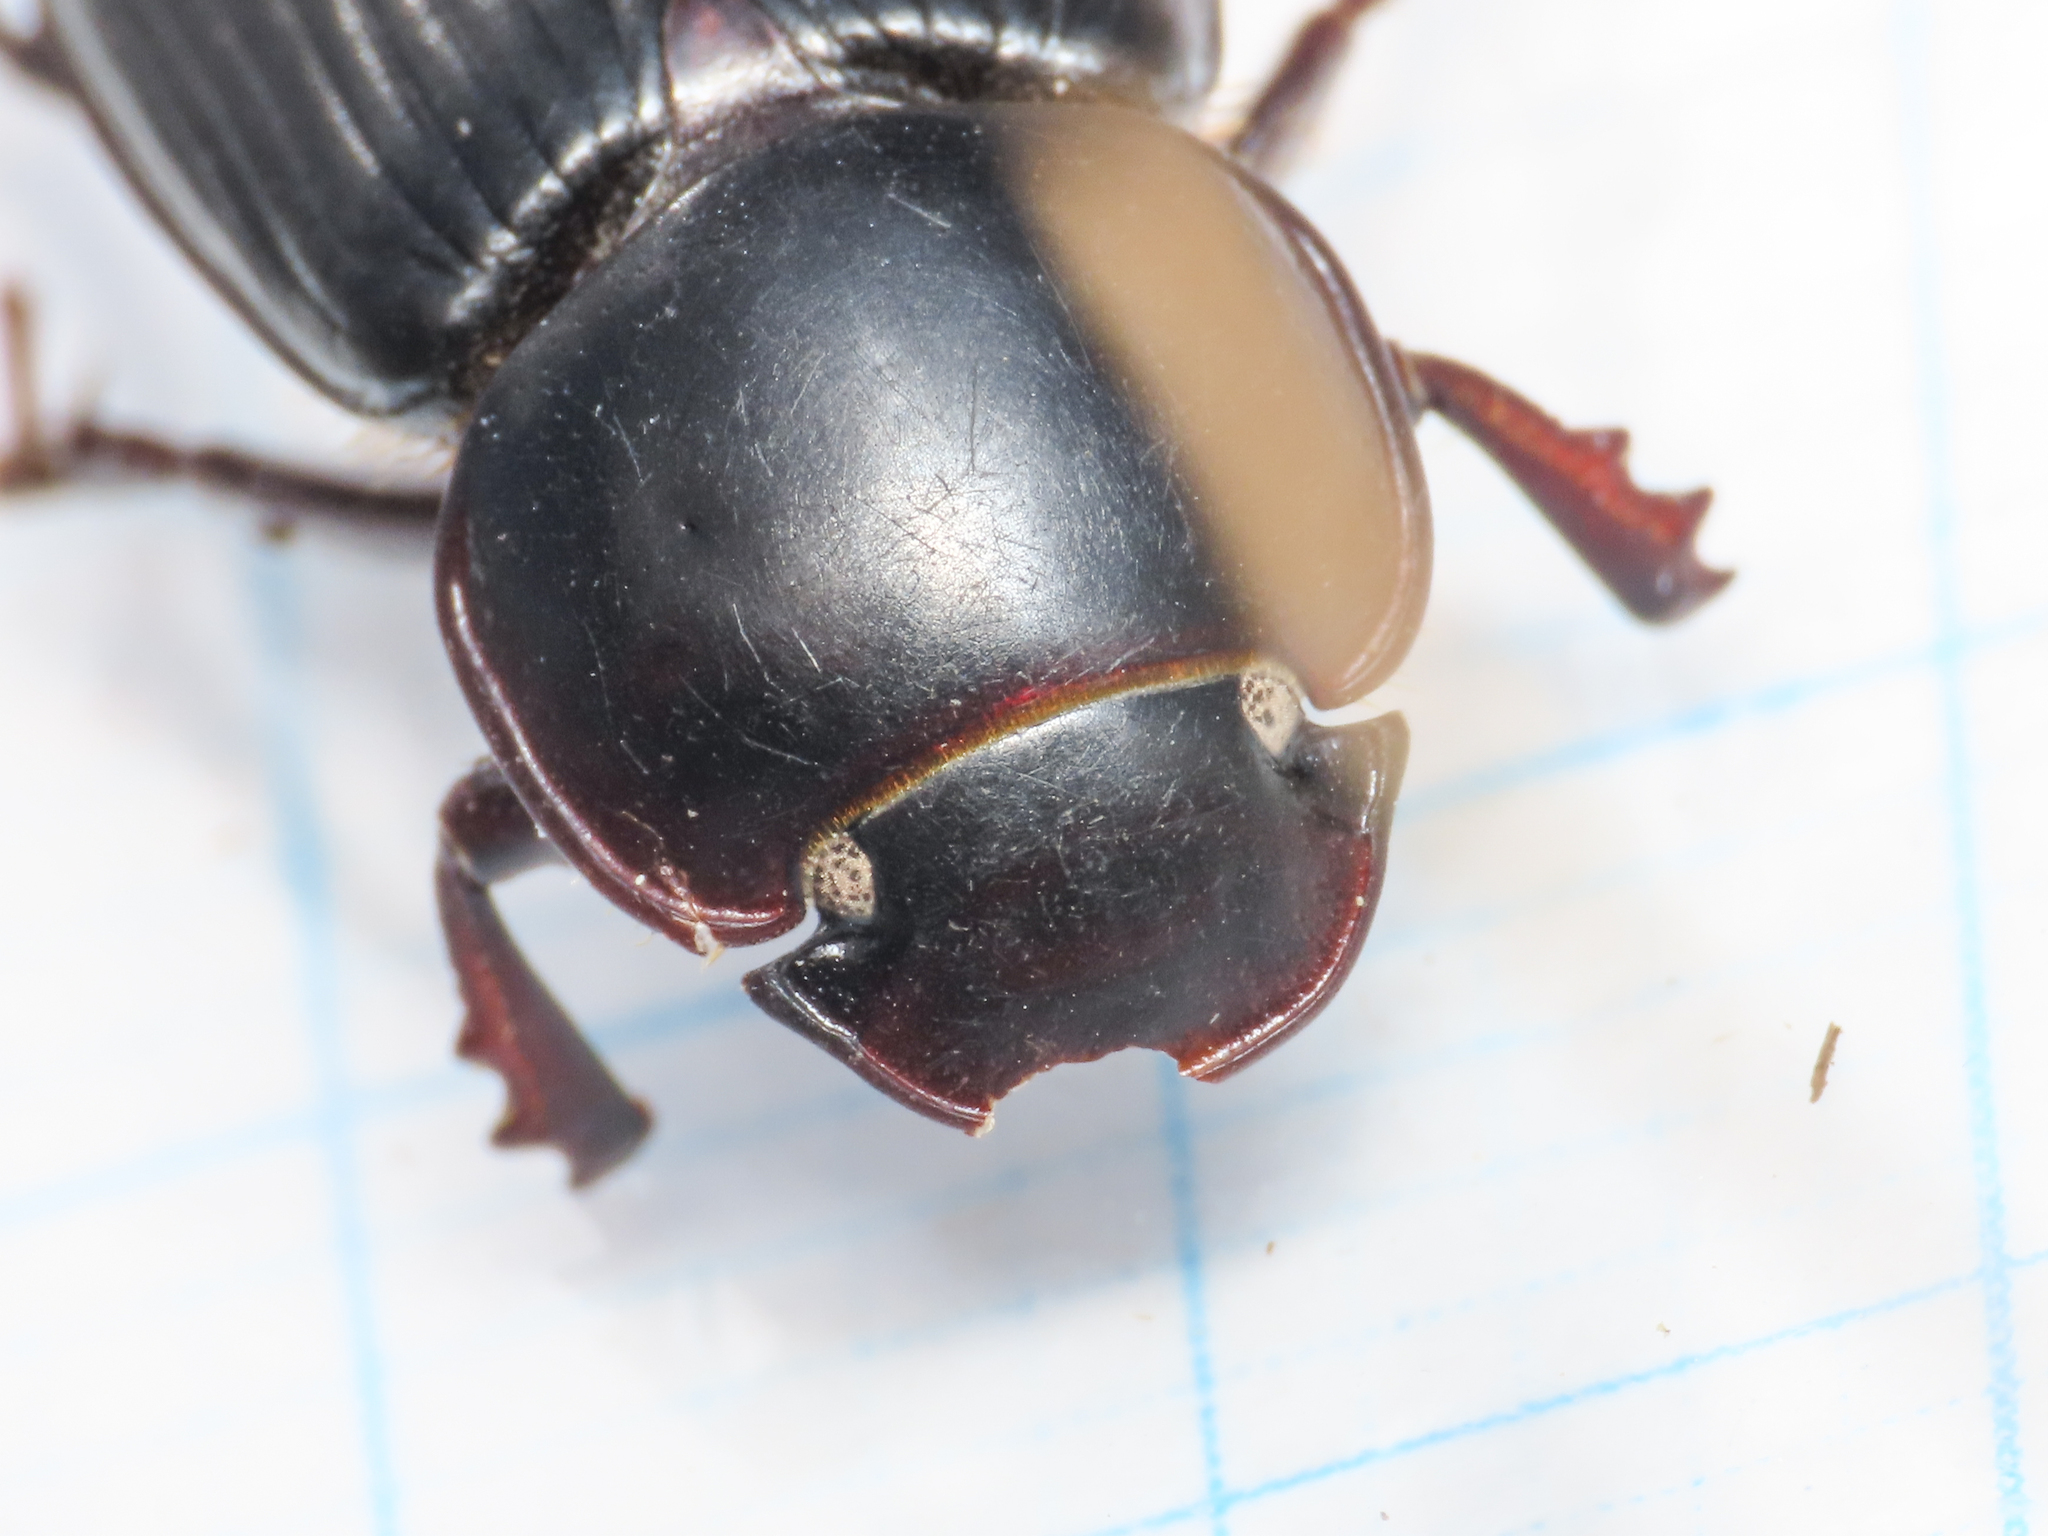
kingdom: Animalia
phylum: Arthropoda
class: Insecta
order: Coleoptera
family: Scarabaeidae
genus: Acrossus
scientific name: Acrossus laticollis
